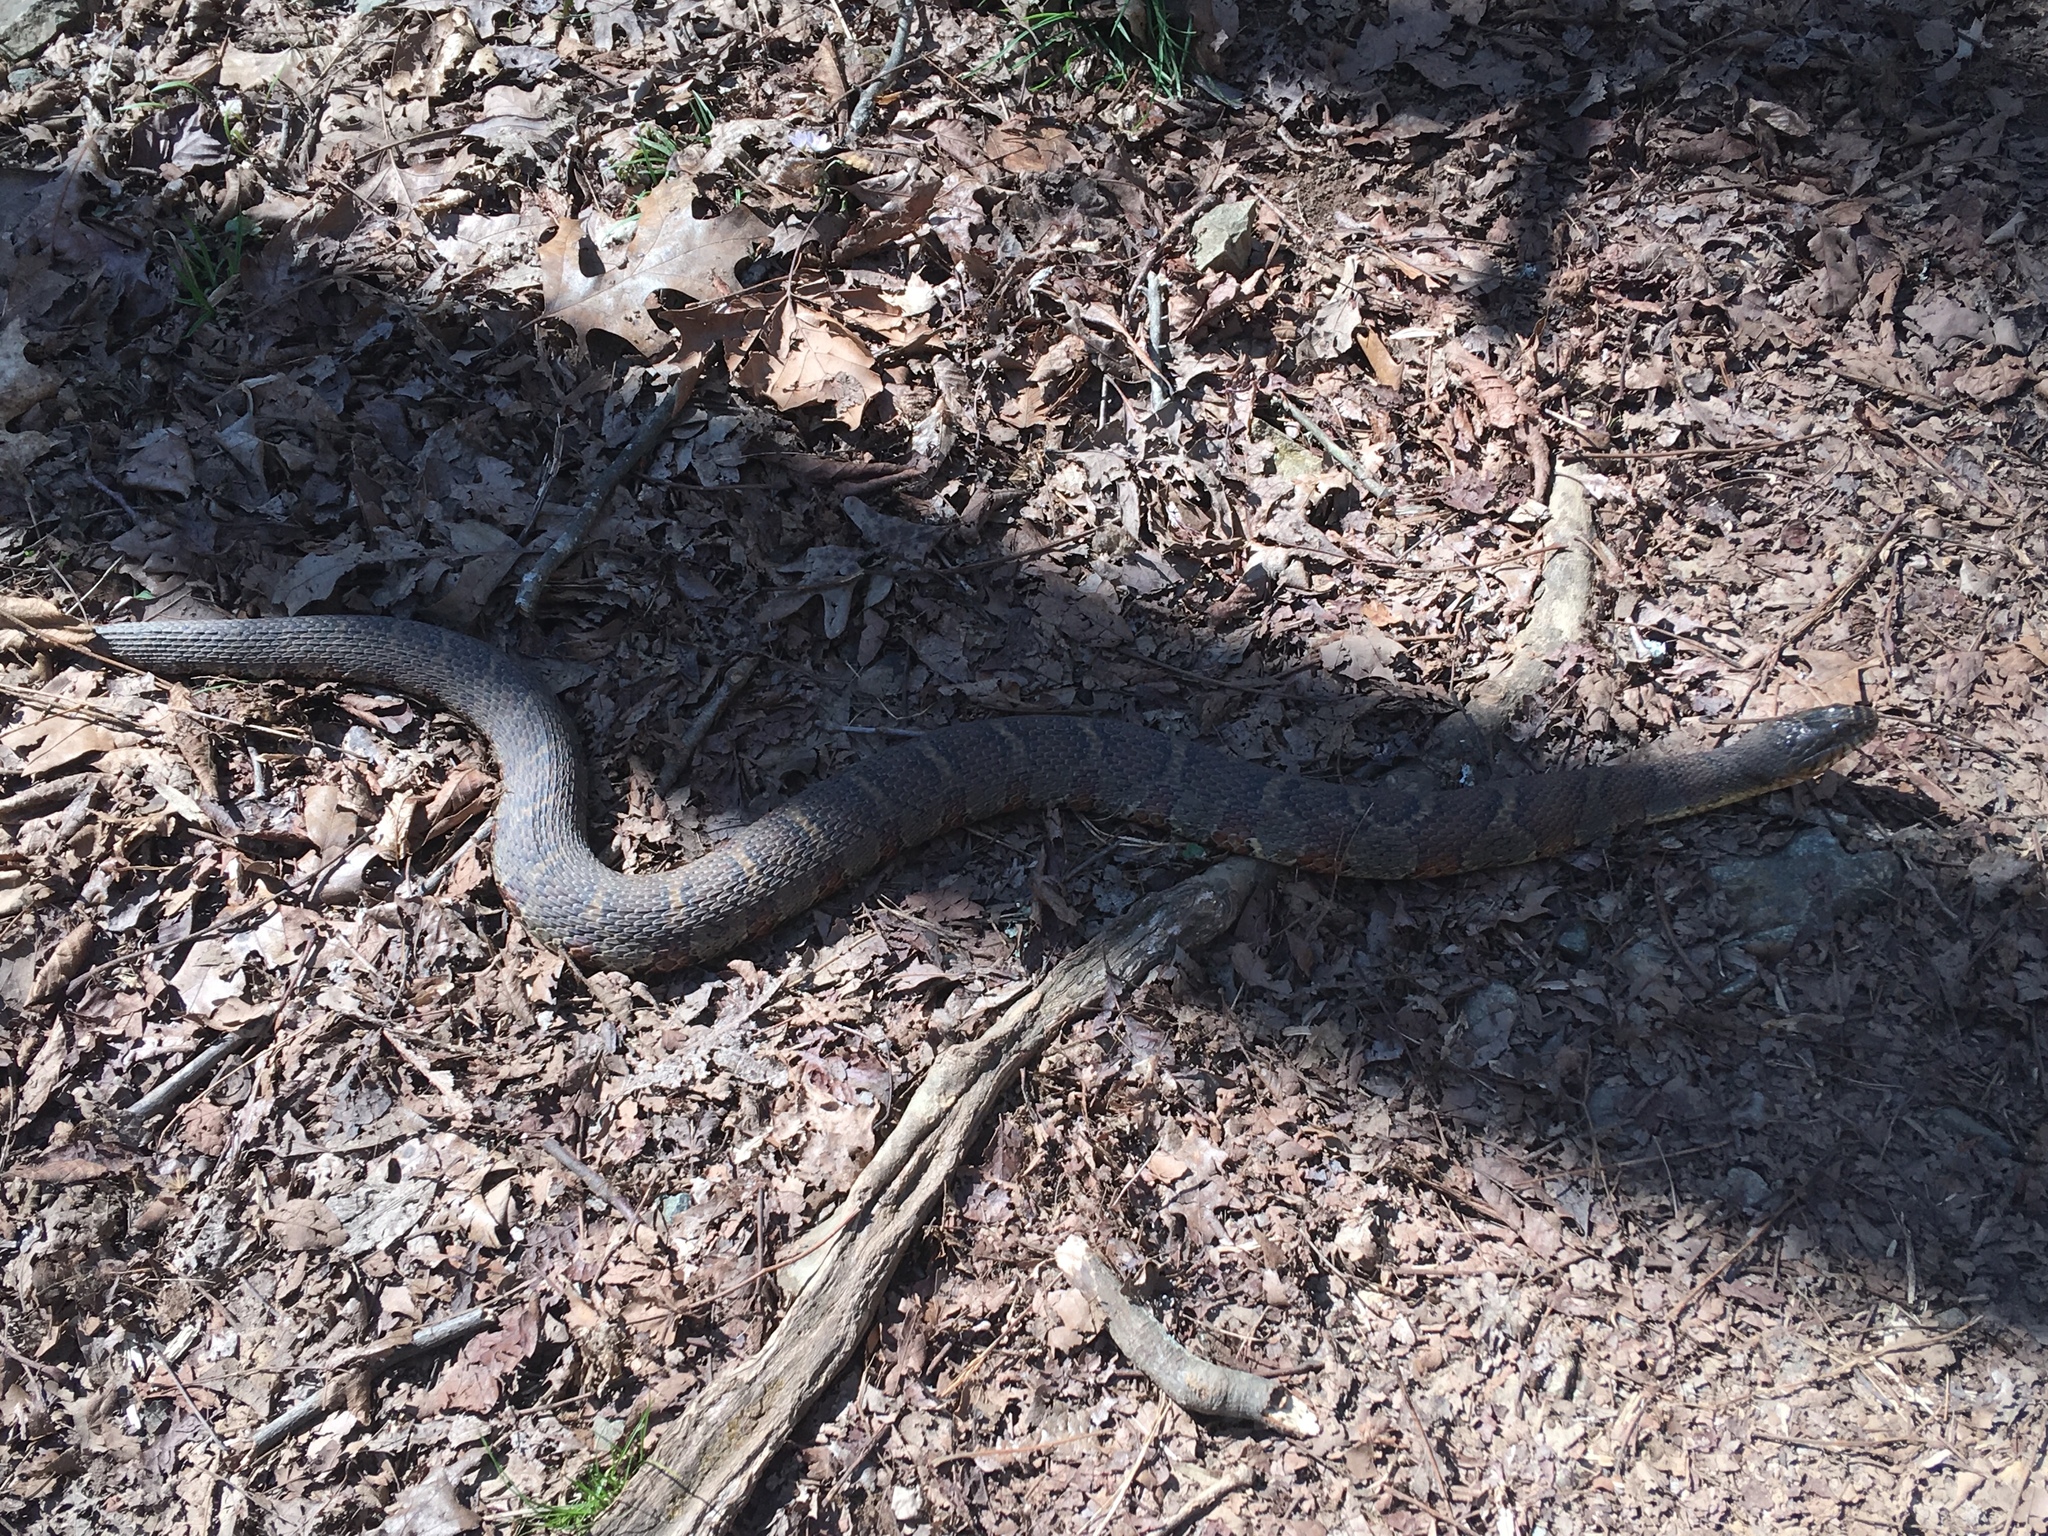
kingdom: Animalia
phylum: Chordata
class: Squamata
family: Colubridae
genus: Nerodia
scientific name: Nerodia sipedon
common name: Northern water snake
